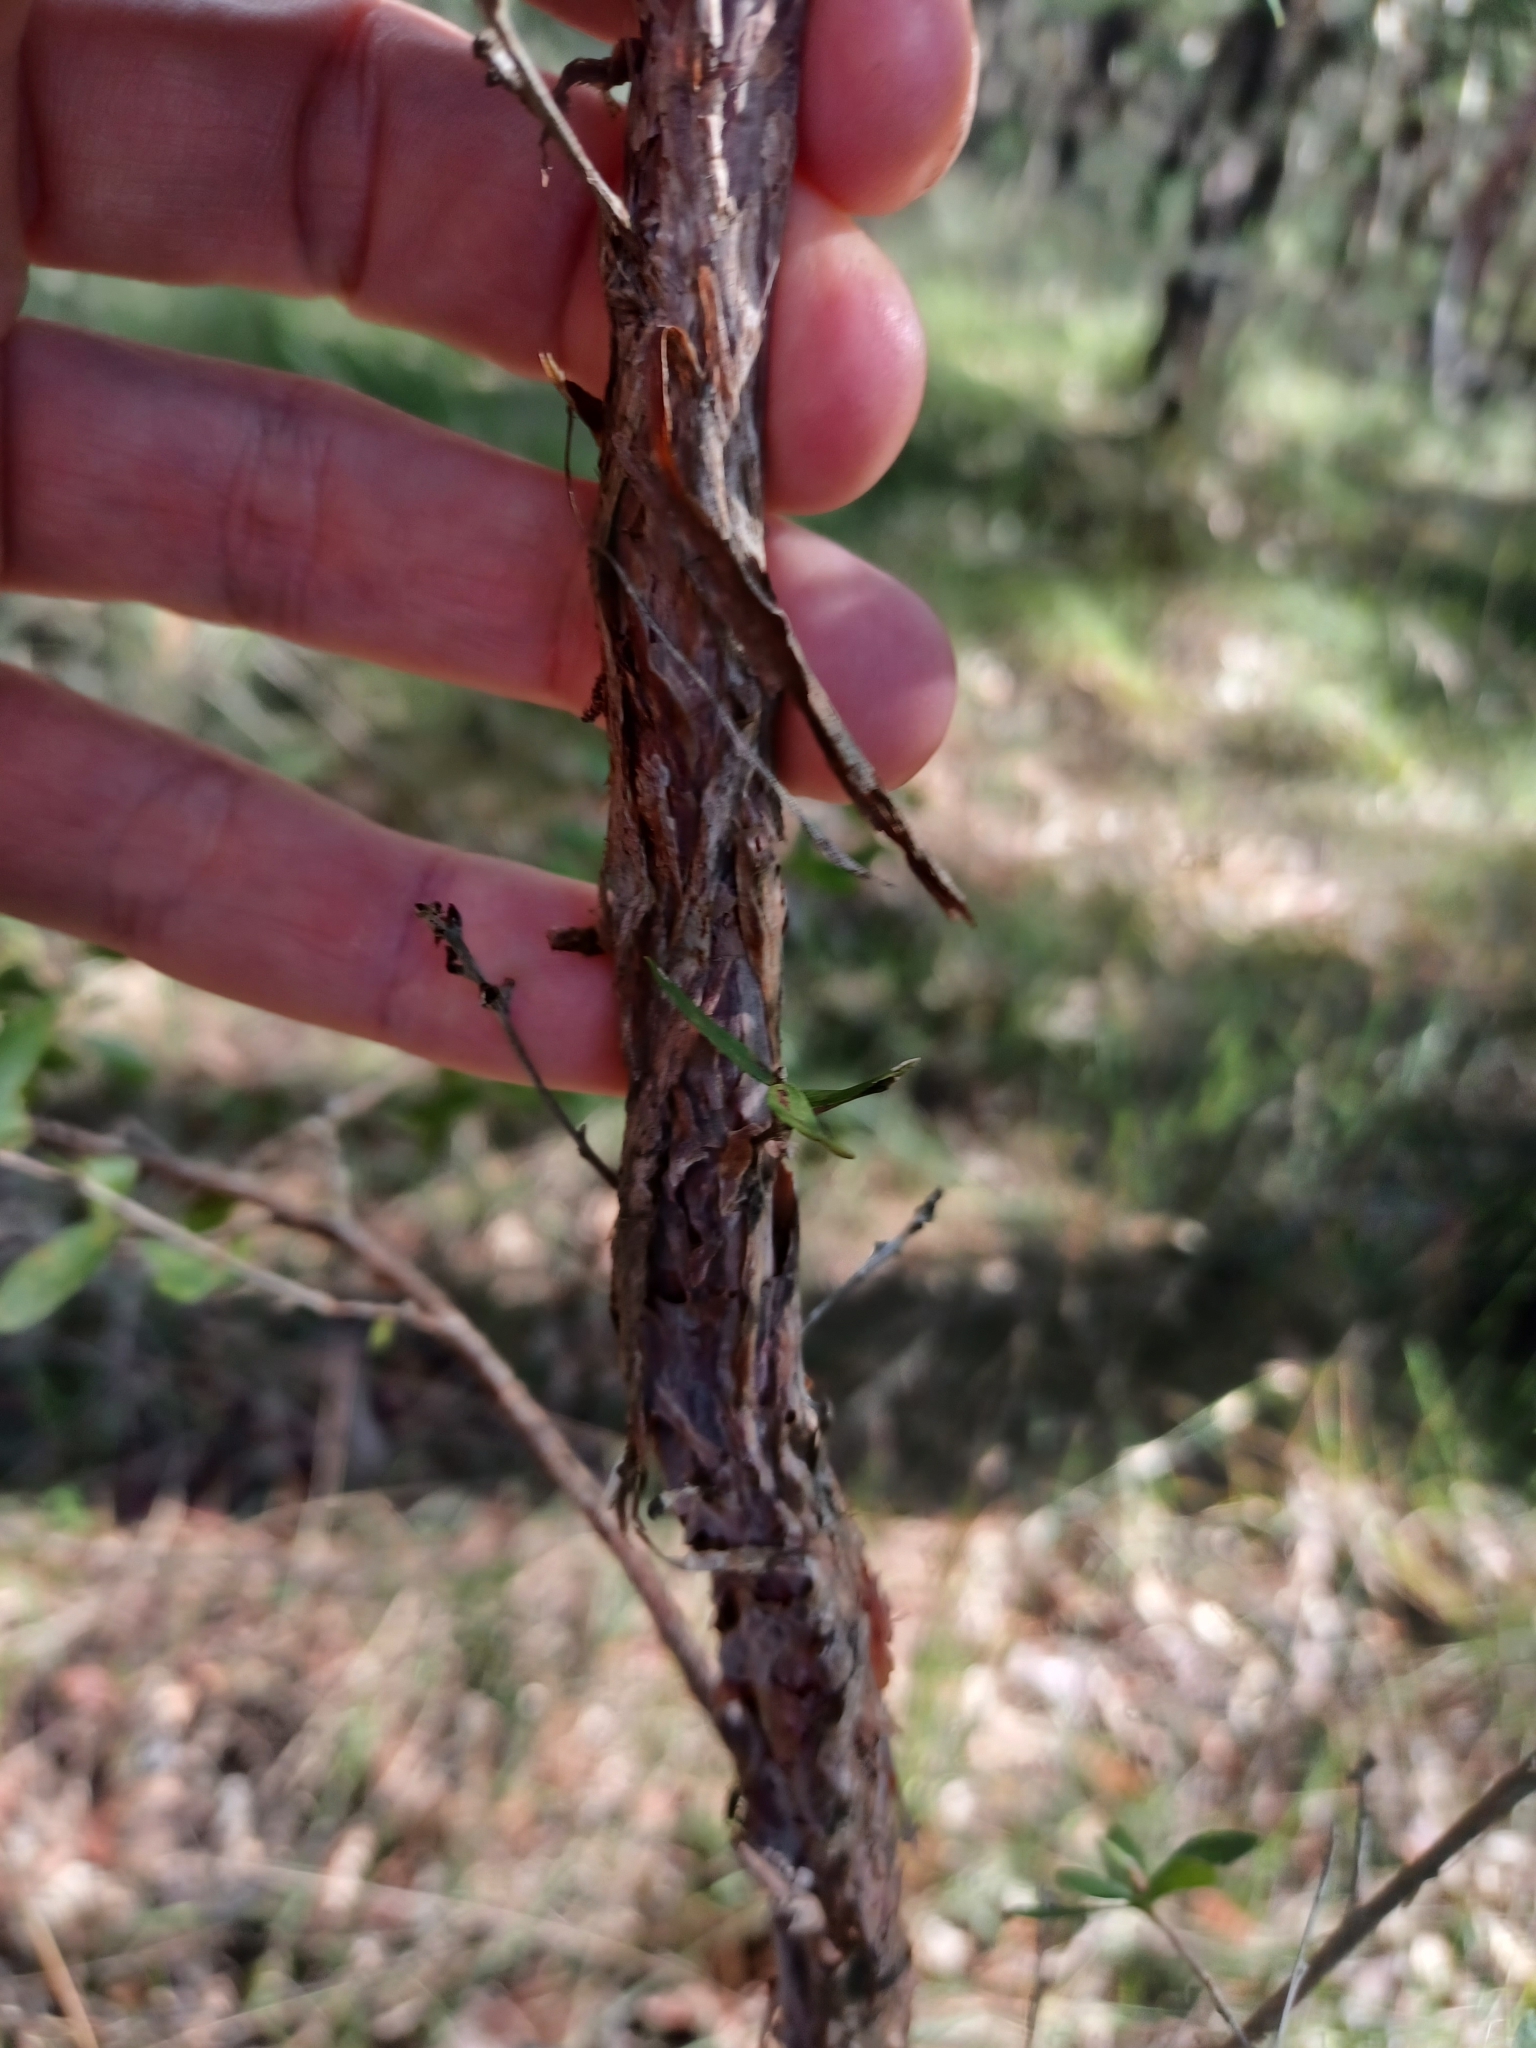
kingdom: Plantae
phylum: Tracheophyta
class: Magnoliopsida
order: Myrtales
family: Myrtaceae
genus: Leptospermum
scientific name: Leptospermum trinervium
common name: Flaky-barked tea-tree
